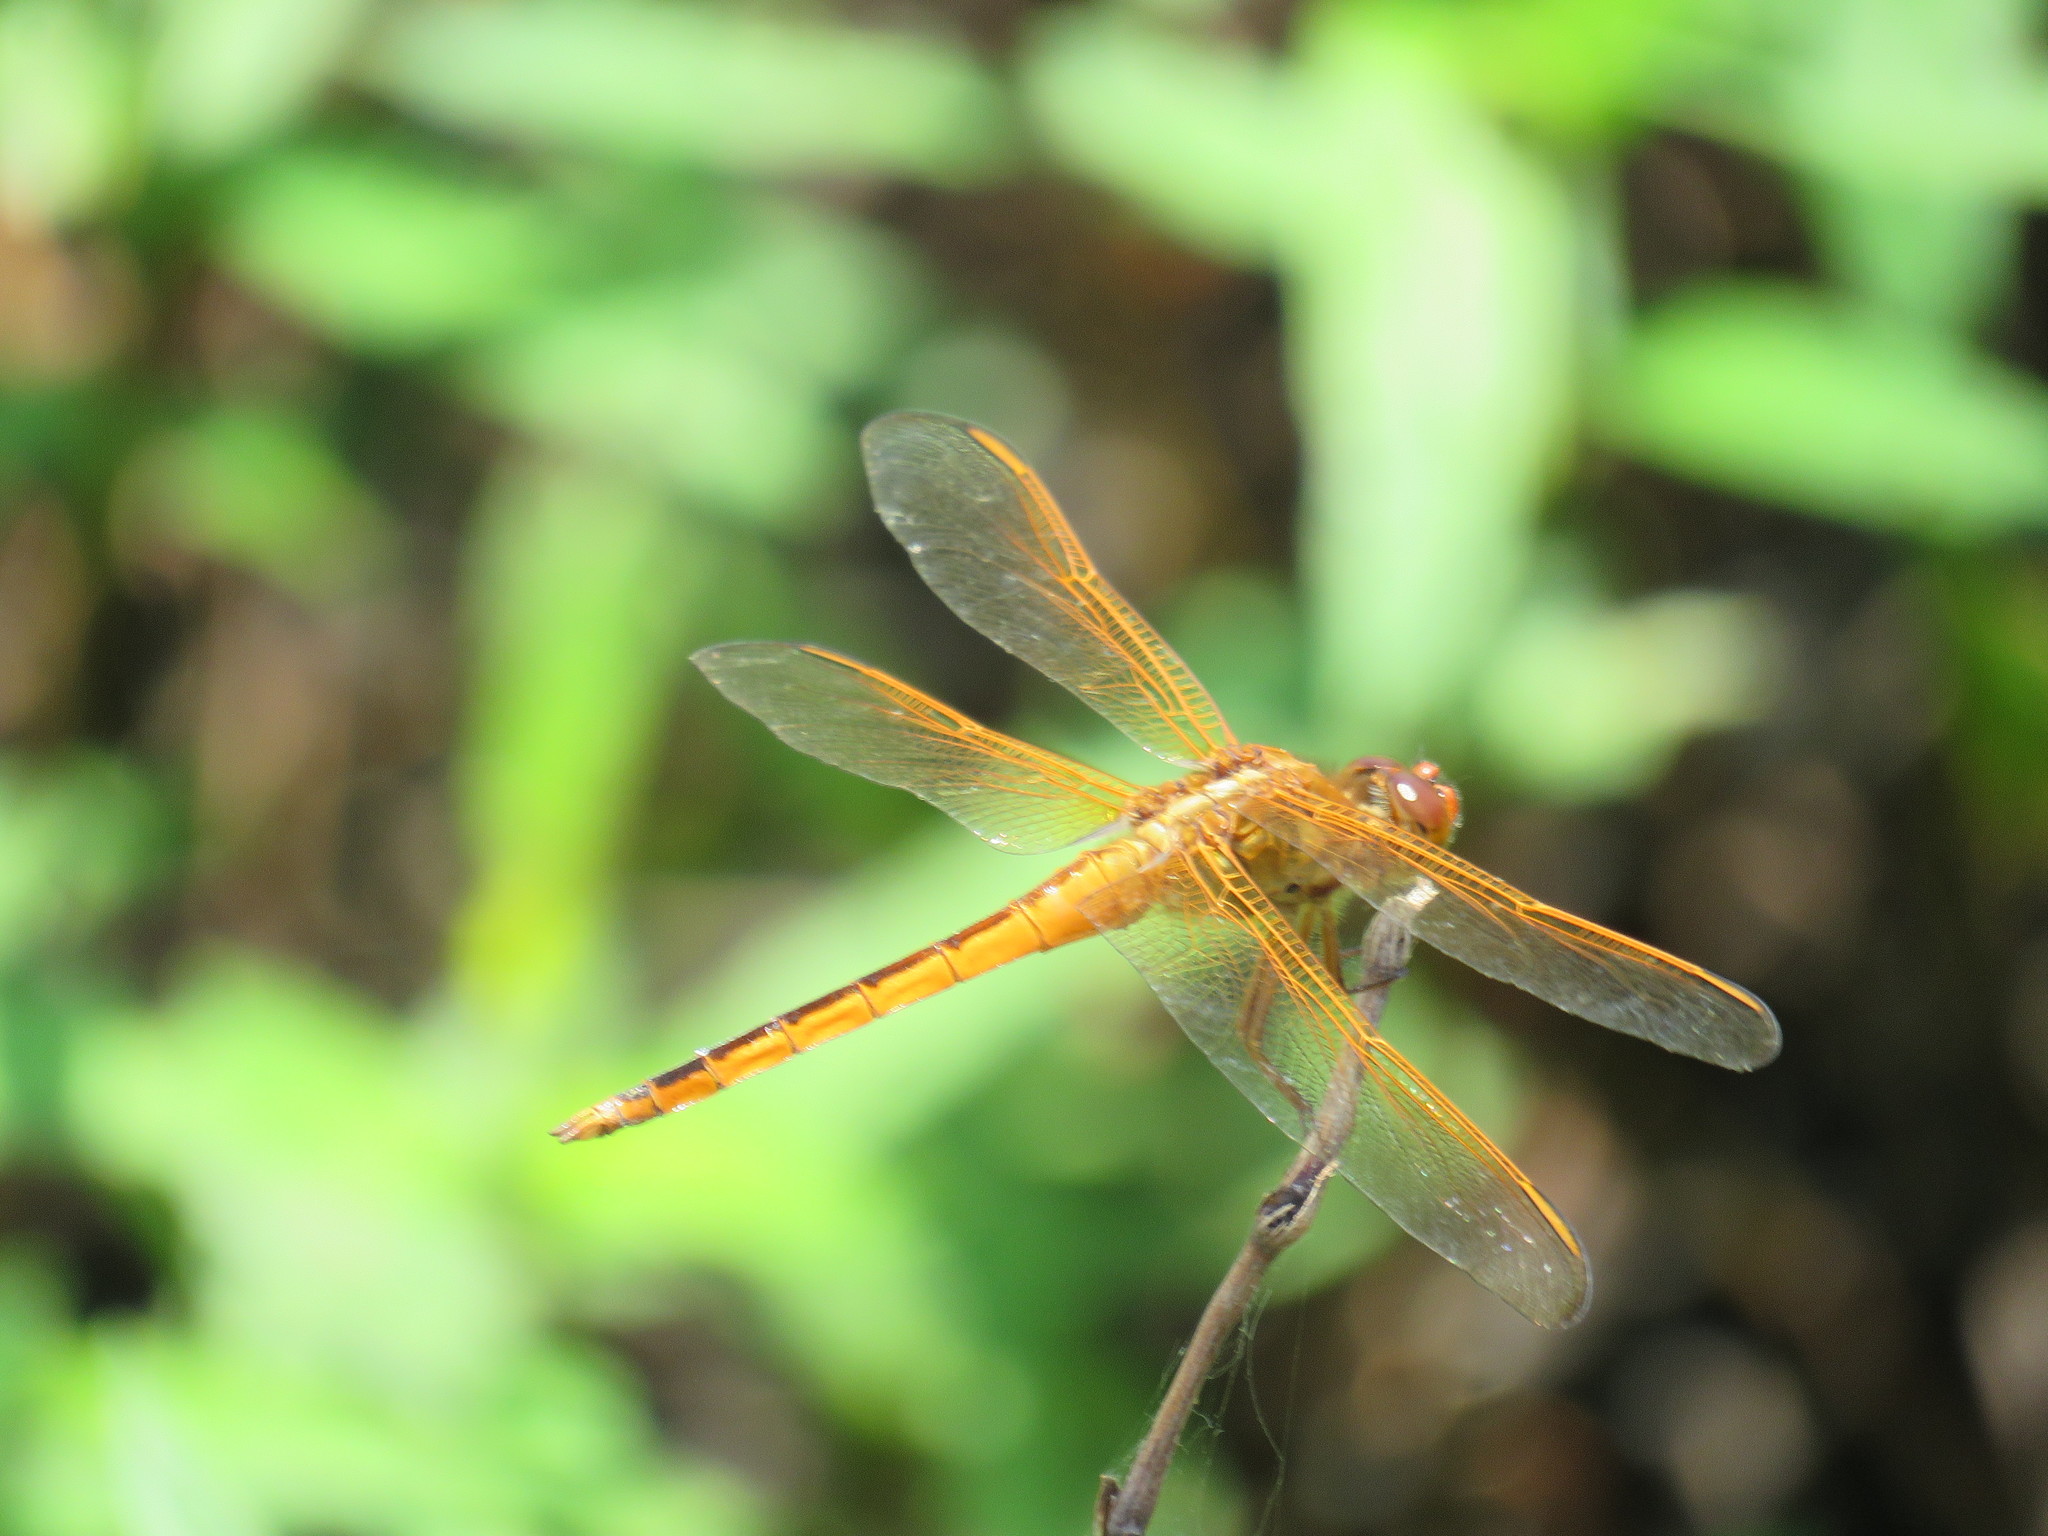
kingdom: Animalia
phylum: Arthropoda
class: Insecta
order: Odonata
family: Libellulidae
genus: Libellula
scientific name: Libellula needhami
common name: Needham's skimmer
